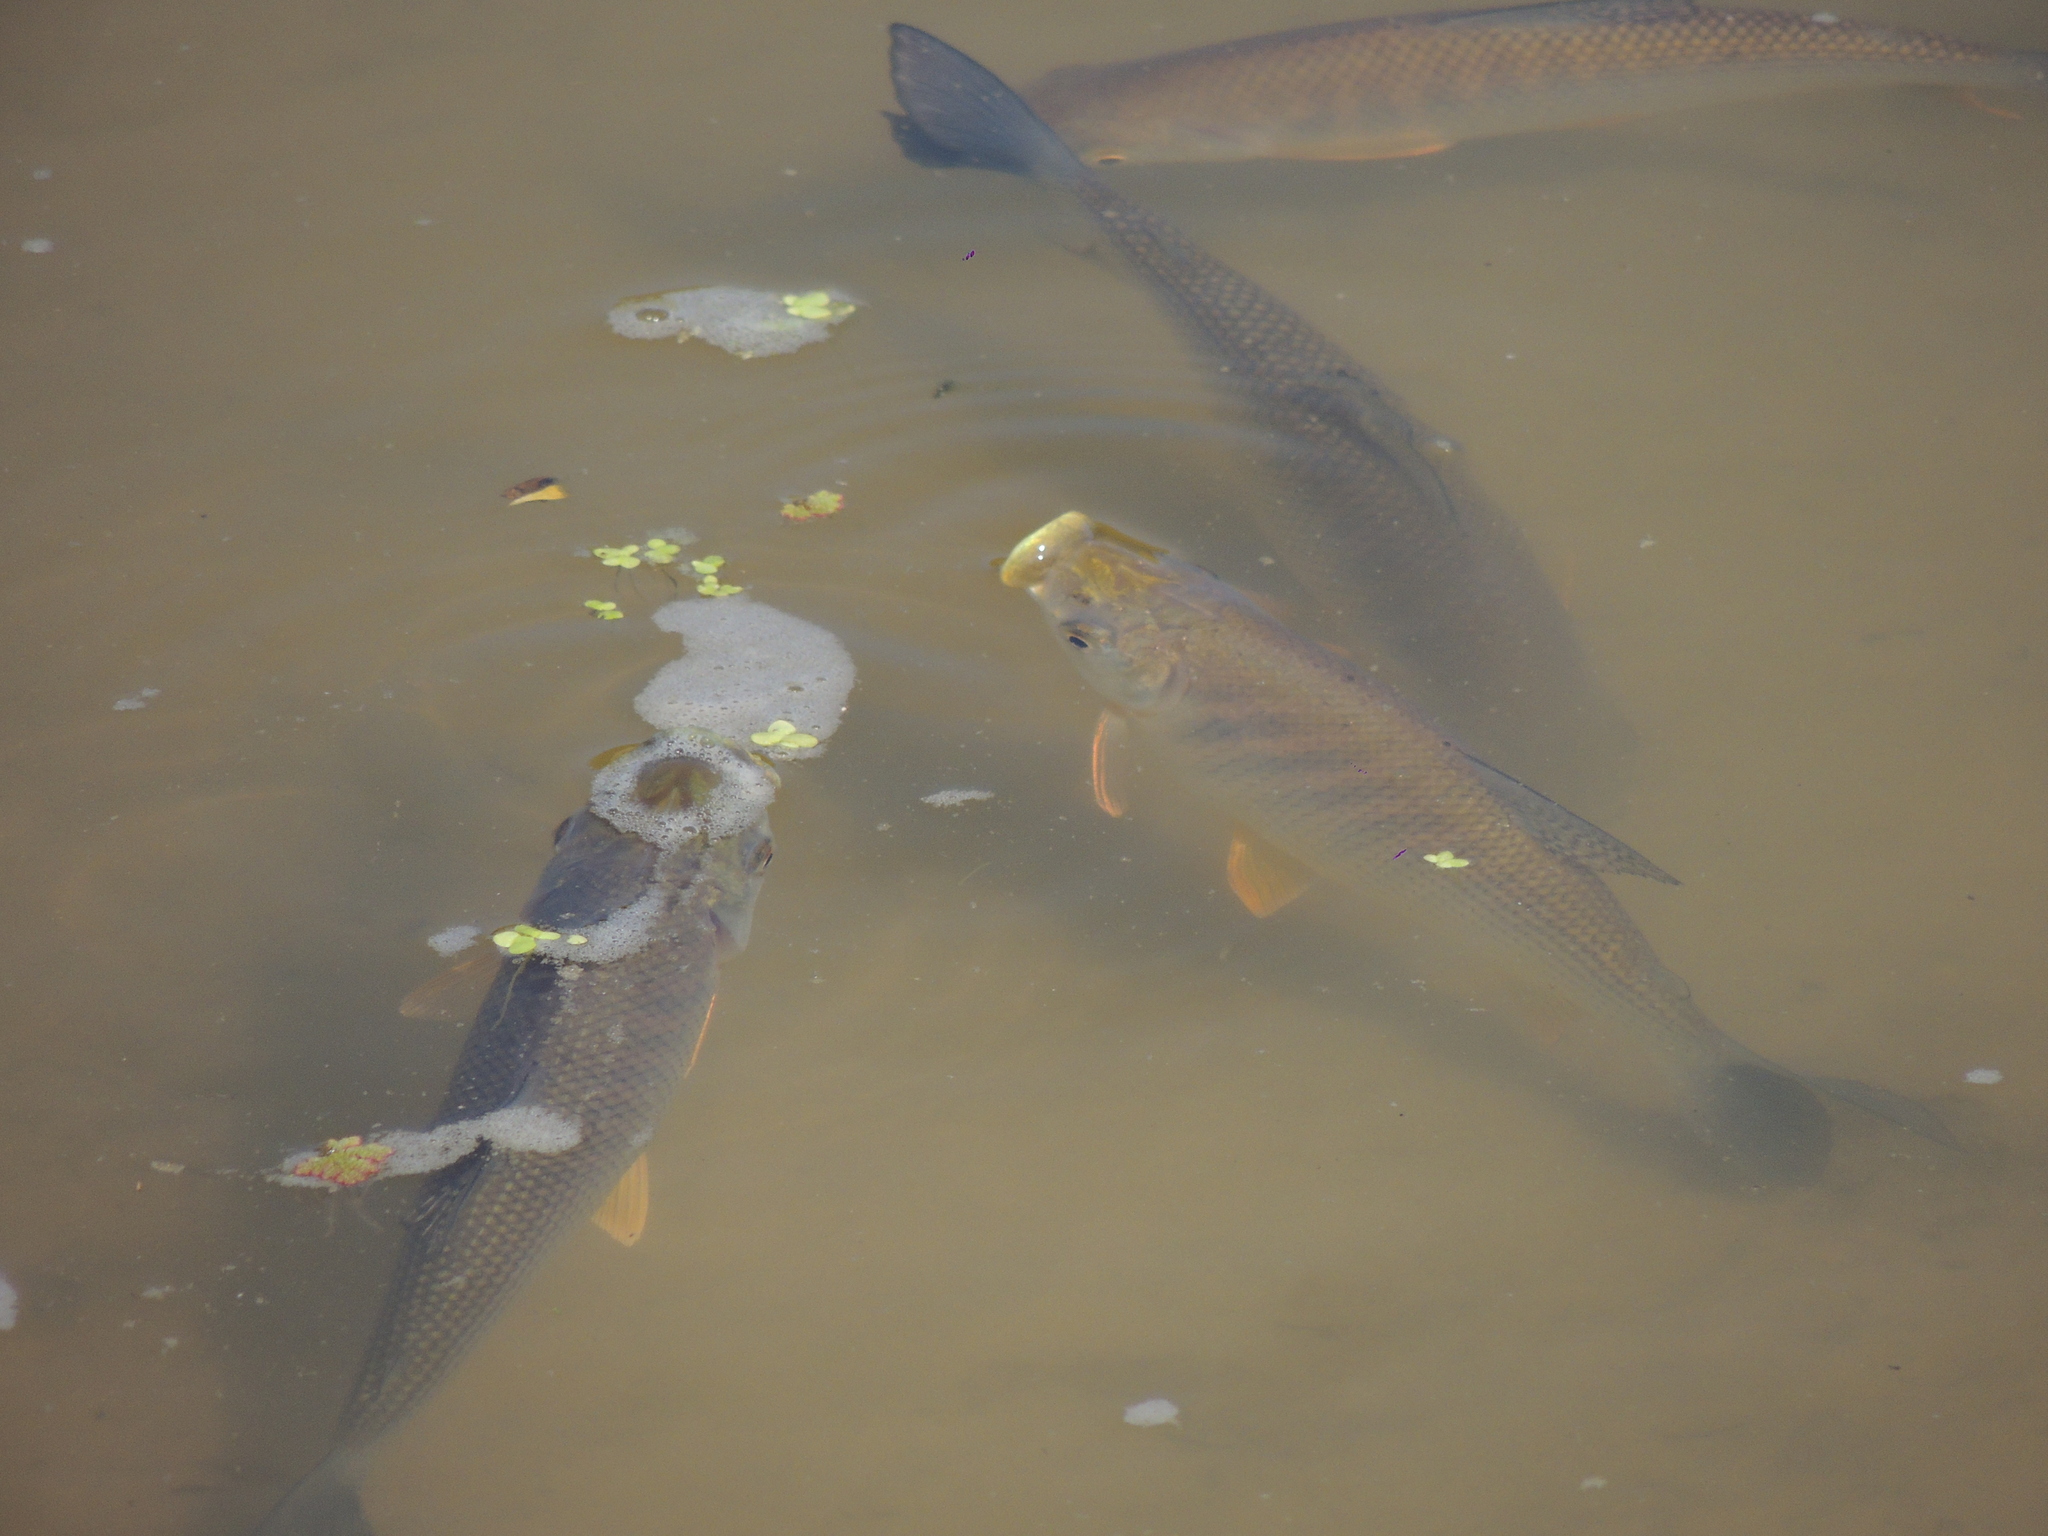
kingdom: Animalia
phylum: Chordata
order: Characiformes
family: Prochilodontidae
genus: Prochilodus
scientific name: Prochilodus lineatus
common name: Curimbata
